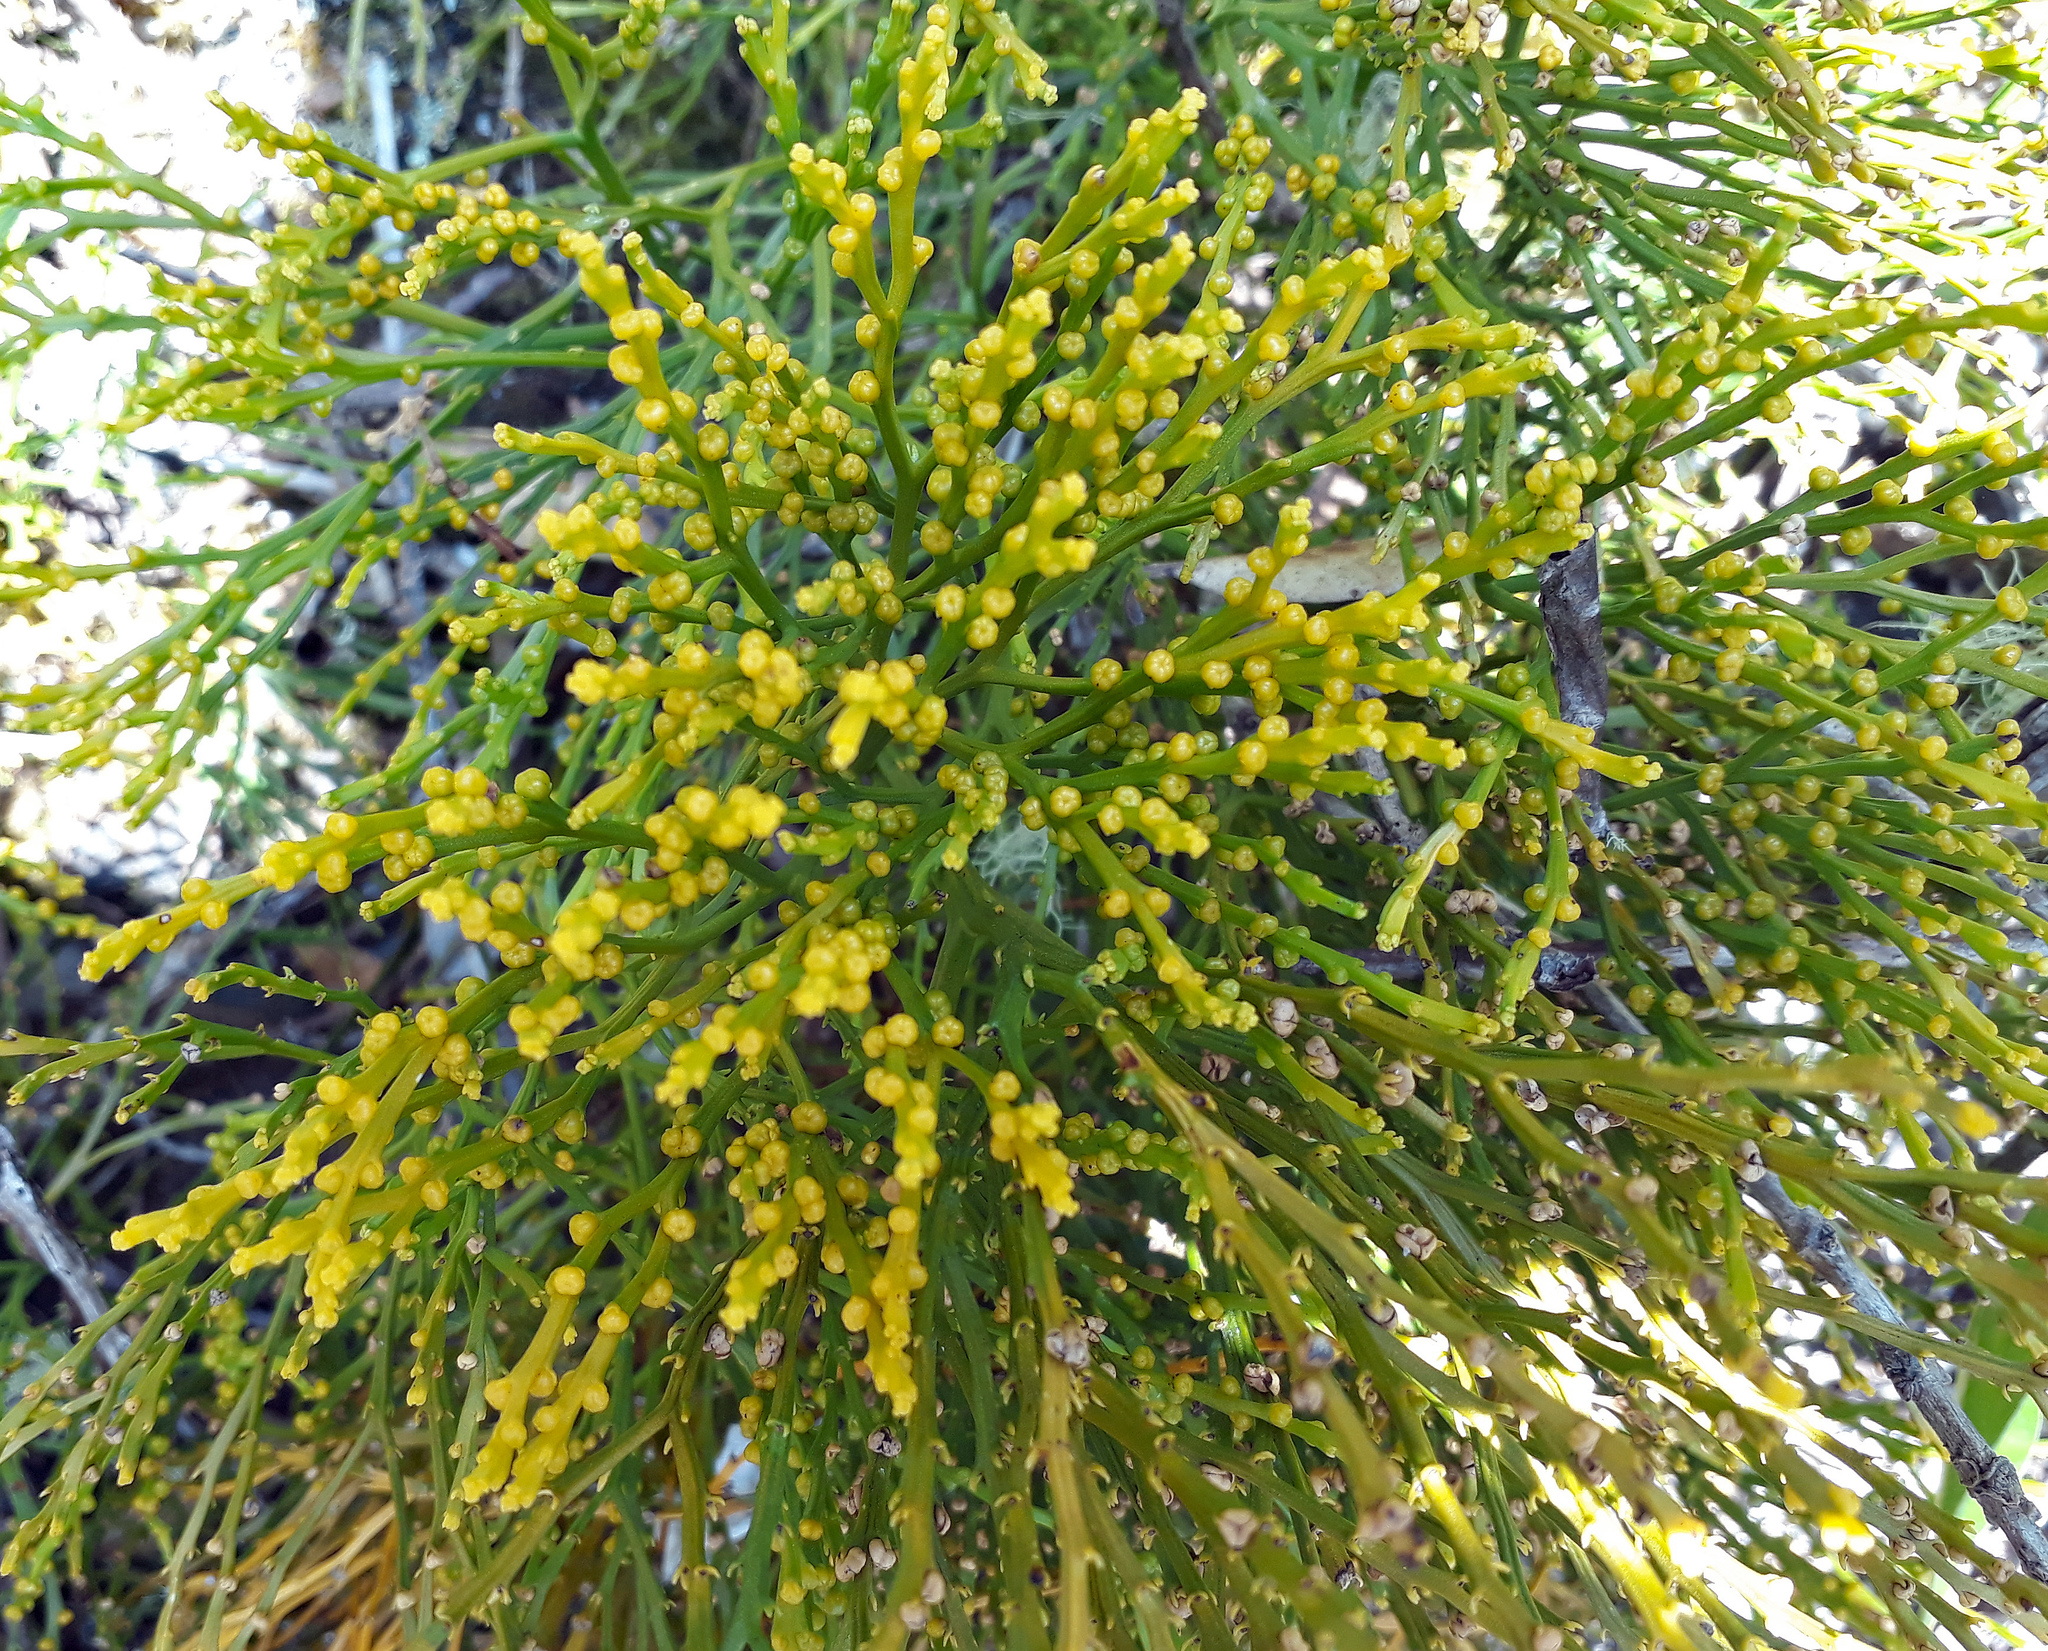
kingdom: Plantae
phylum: Tracheophyta
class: Polypodiopsida
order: Psilotales
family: Psilotaceae
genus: Psilotum
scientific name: Psilotum nudum
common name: Skeleton fork fern
